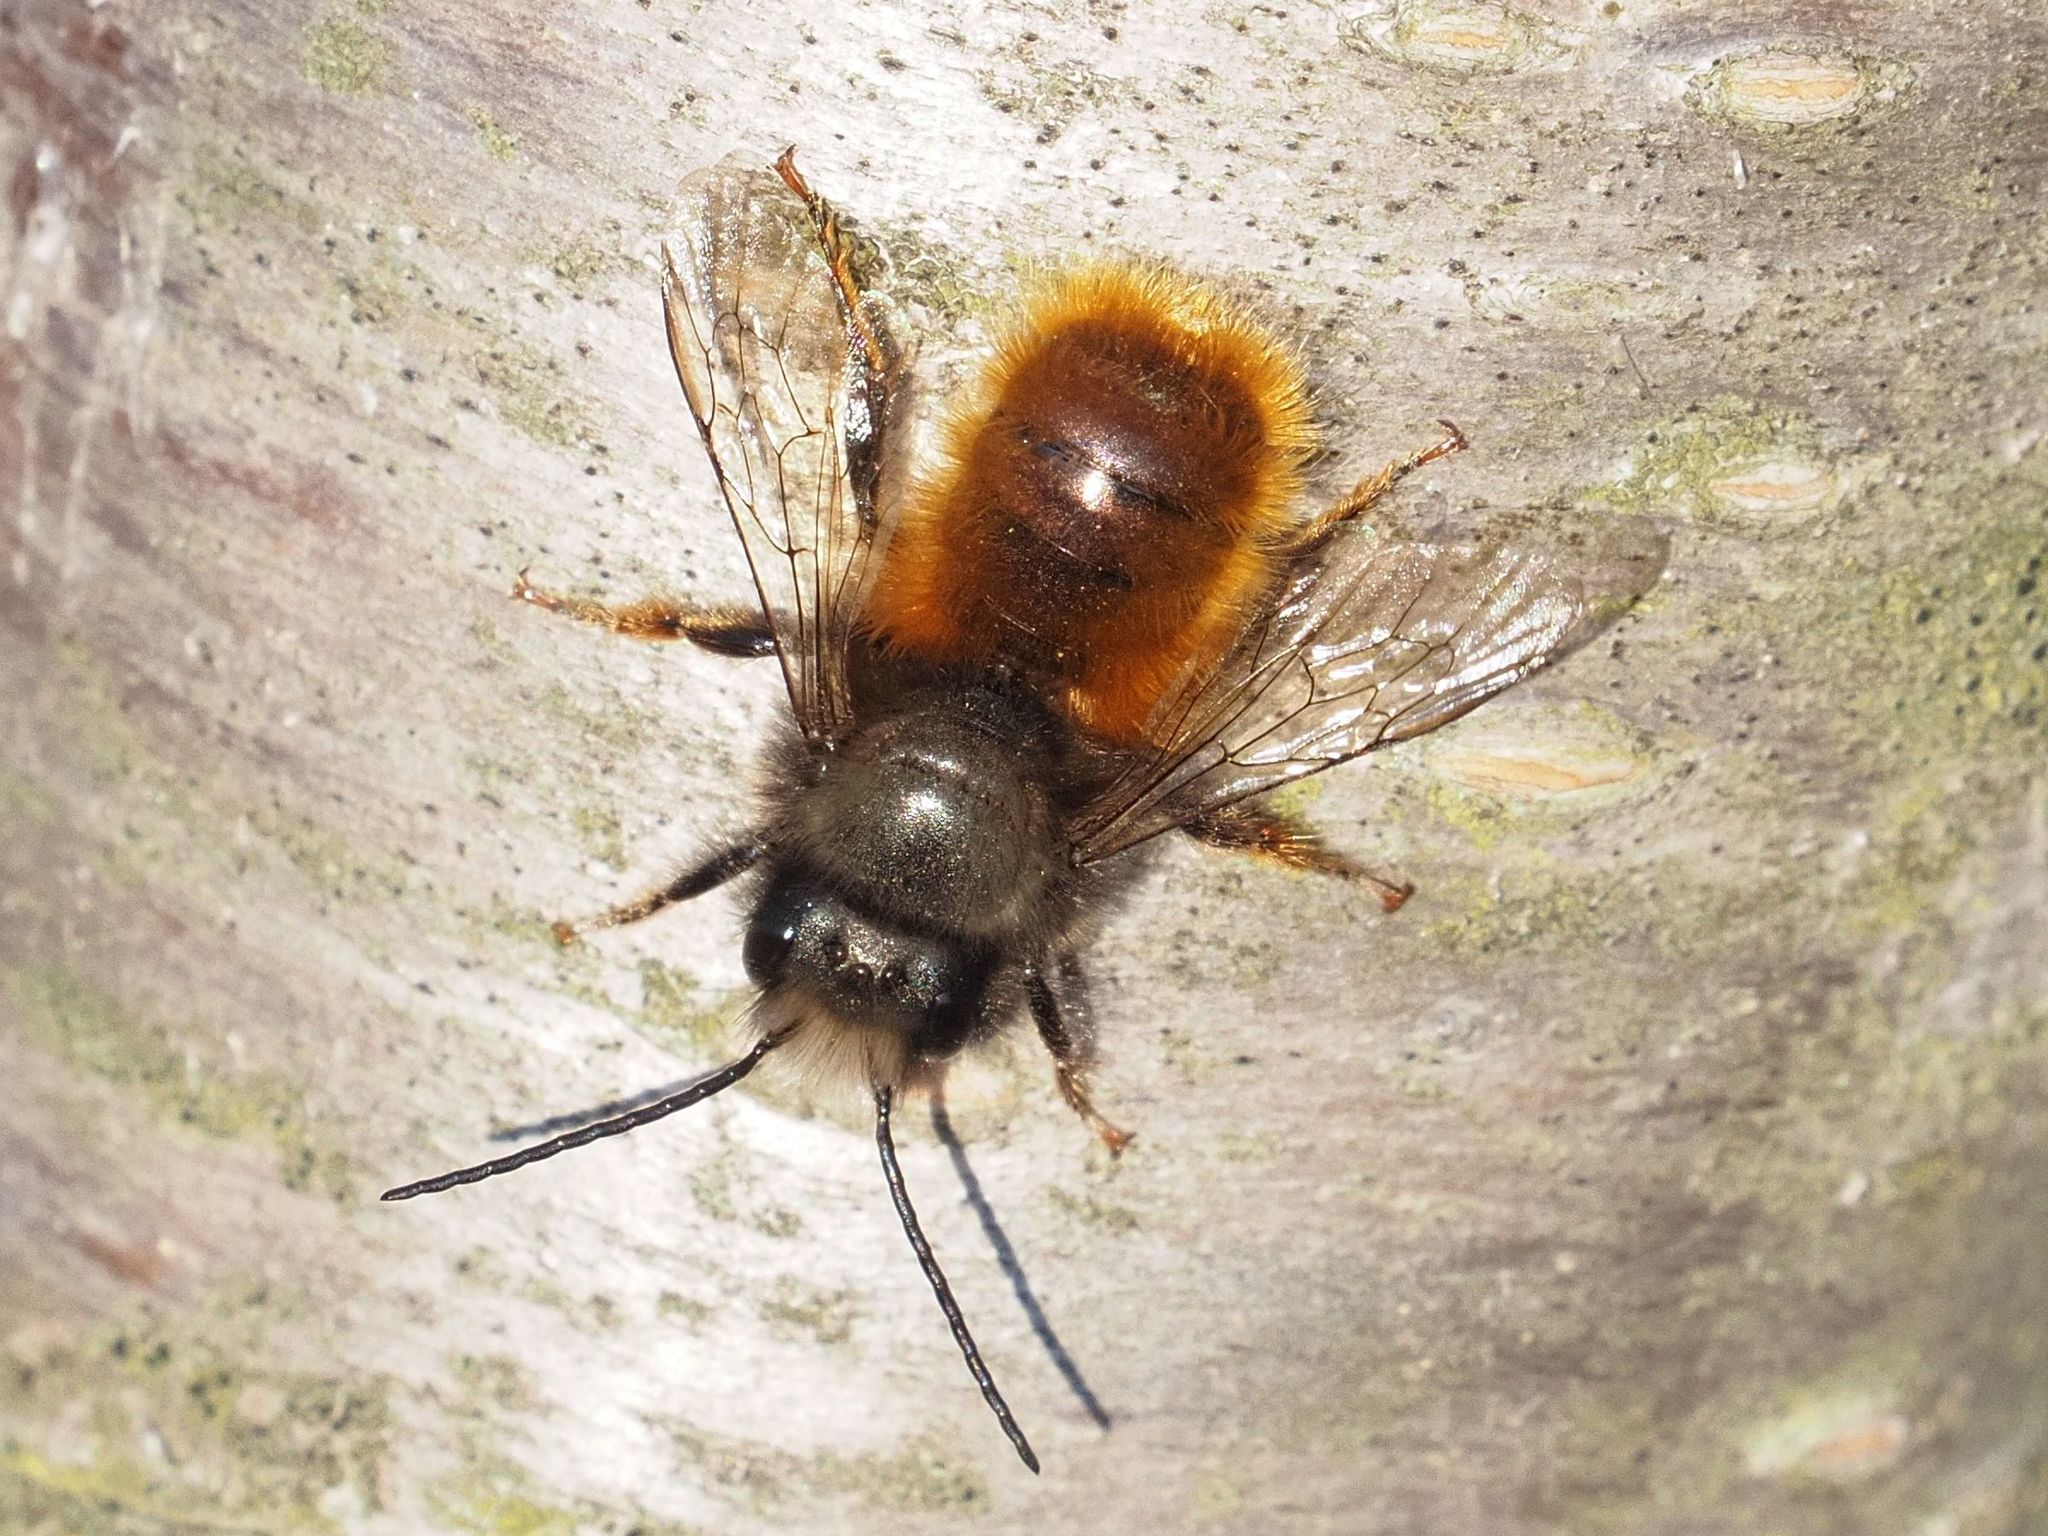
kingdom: Animalia
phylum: Arthropoda
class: Insecta
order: Hymenoptera
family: Megachilidae
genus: Osmia
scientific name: Osmia cornuta
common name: Mason bee
